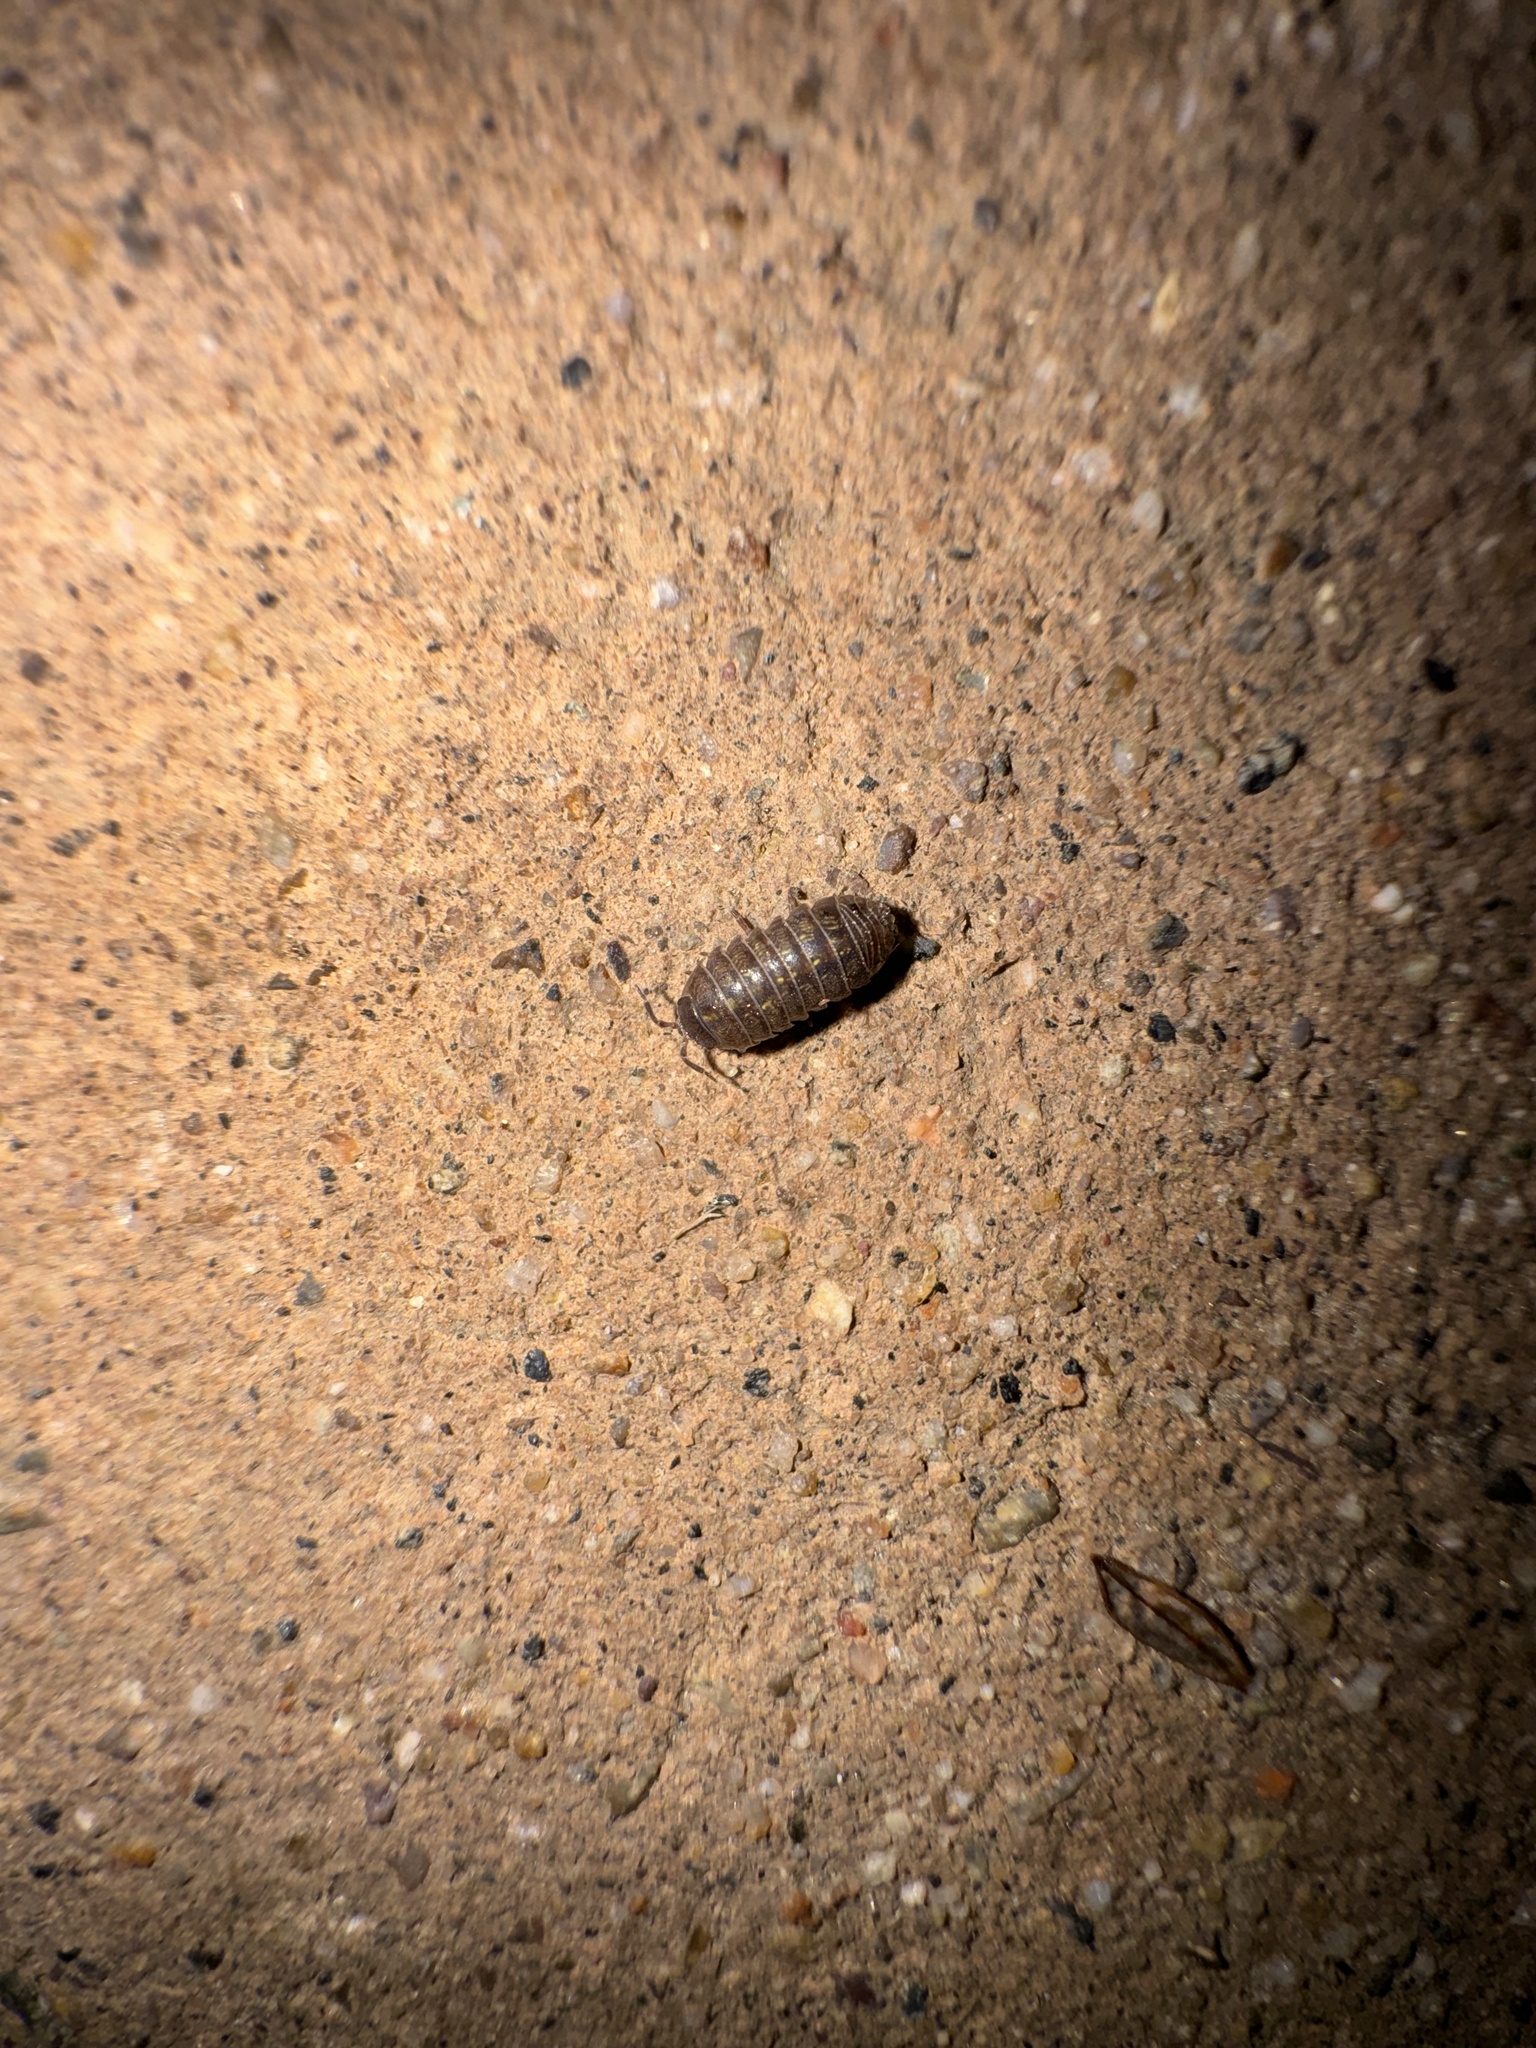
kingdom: Animalia
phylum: Arthropoda
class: Malacostraca
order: Isopoda
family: Armadillidiidae
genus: Armadillidium
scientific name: Armadillidium vulgare
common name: Common pill woodlouse
